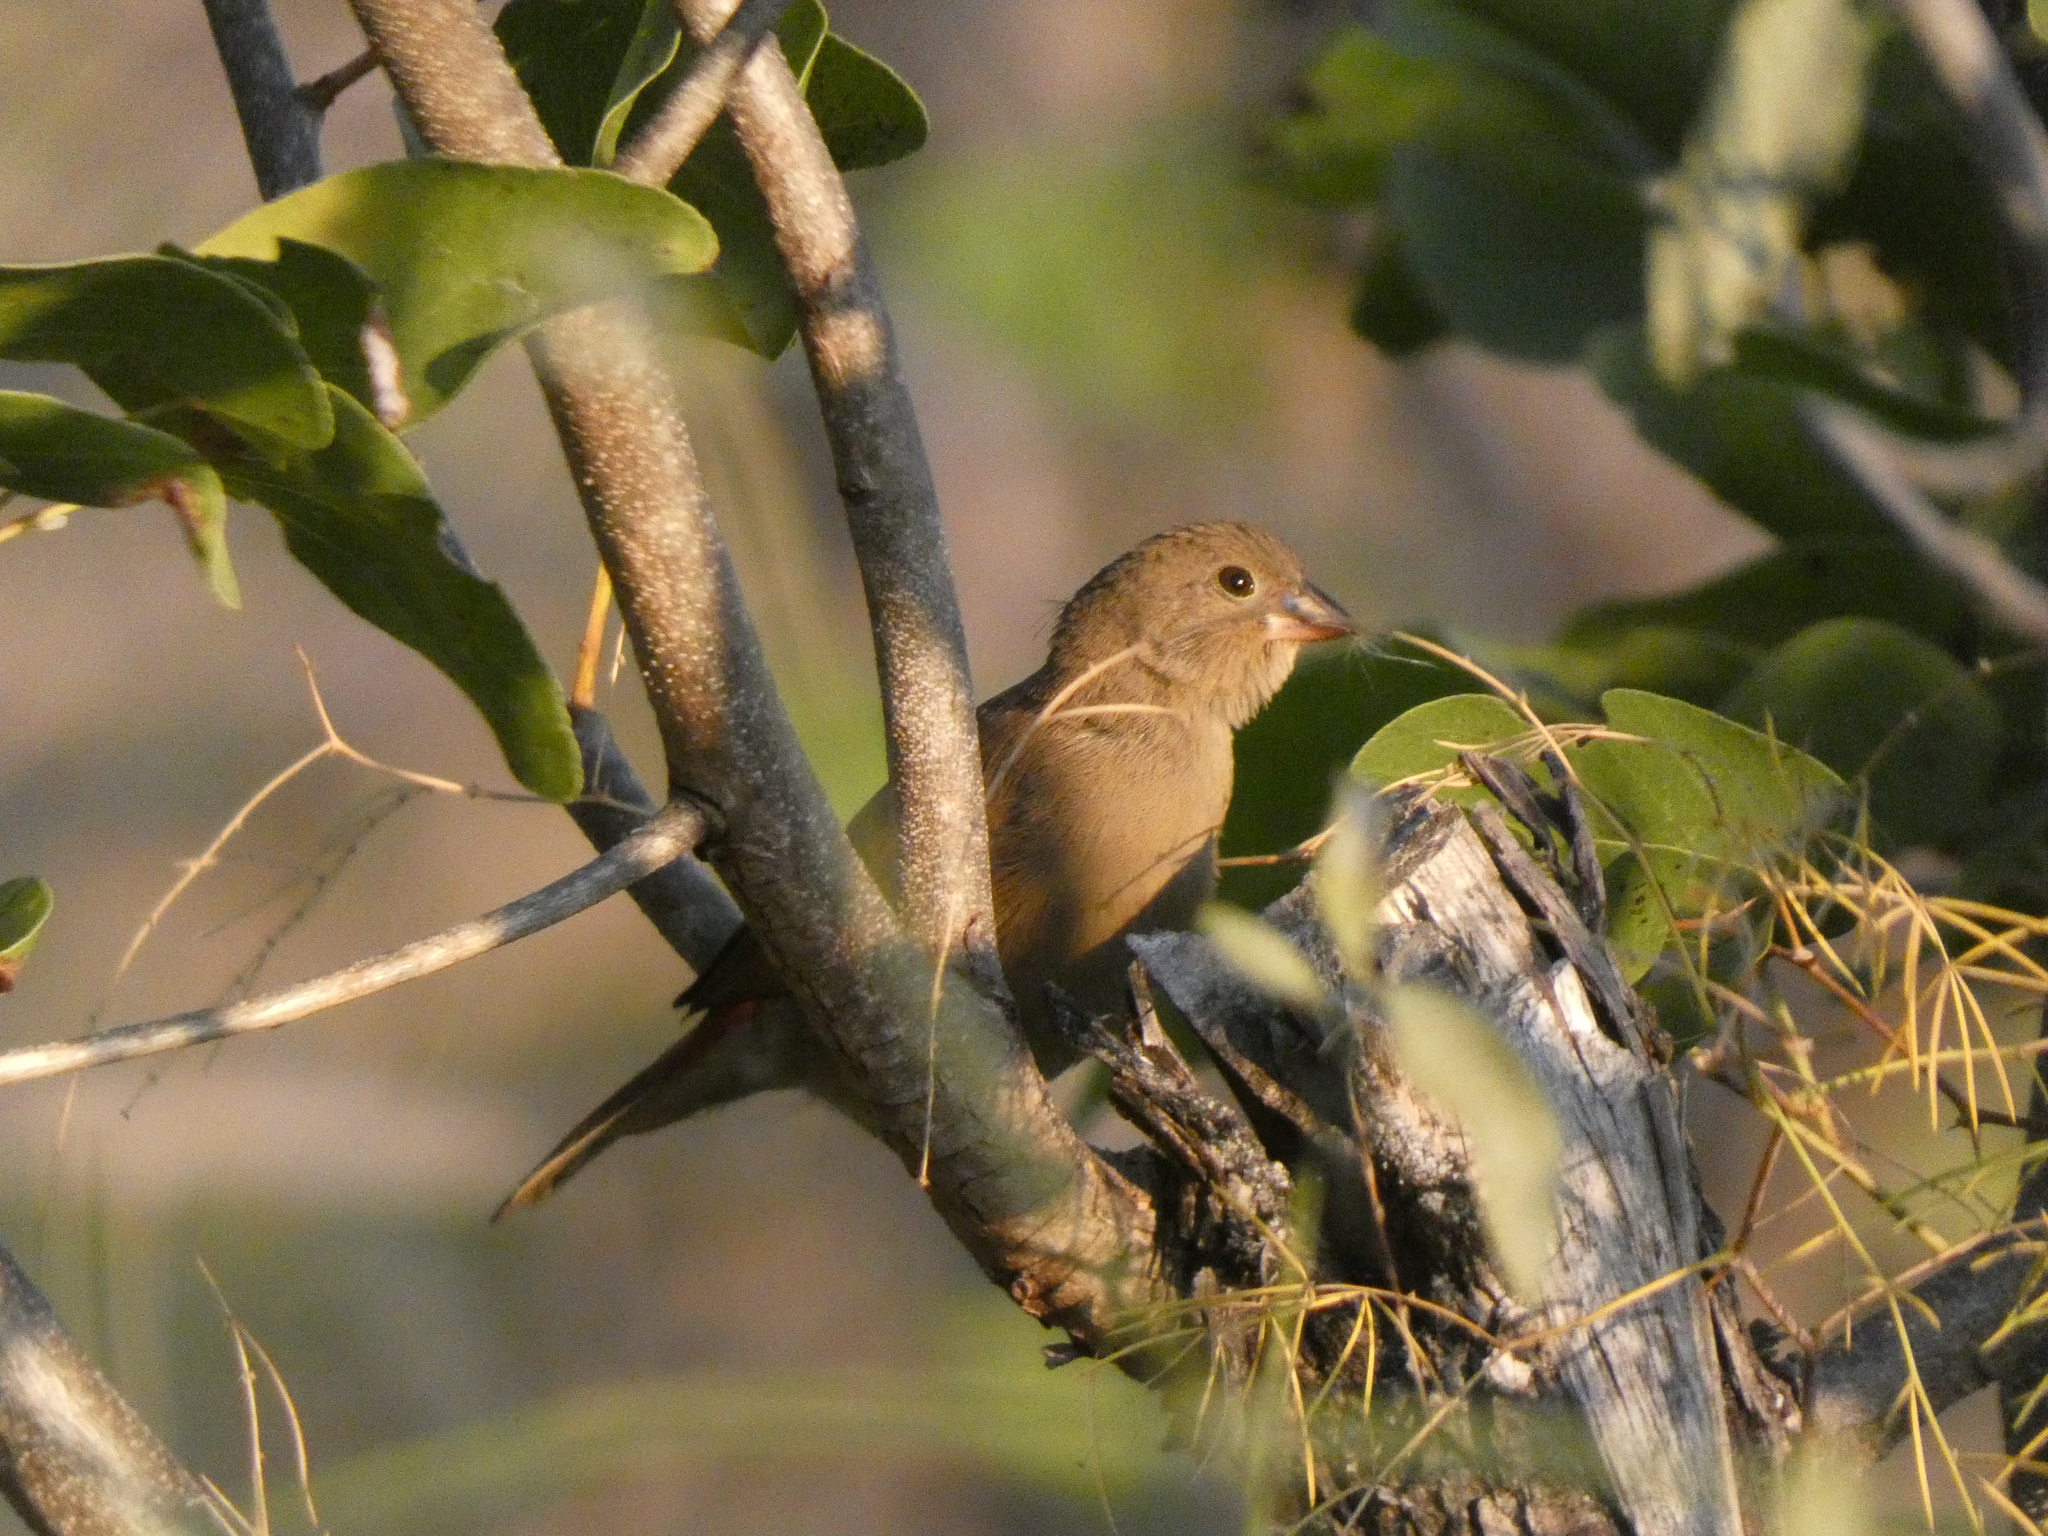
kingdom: Animalia
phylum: Chordata
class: Aves
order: Passeriformes
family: Estrildidae
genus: Lagonosticta
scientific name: Lagonosticta senegala
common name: Red-billed firefinch
